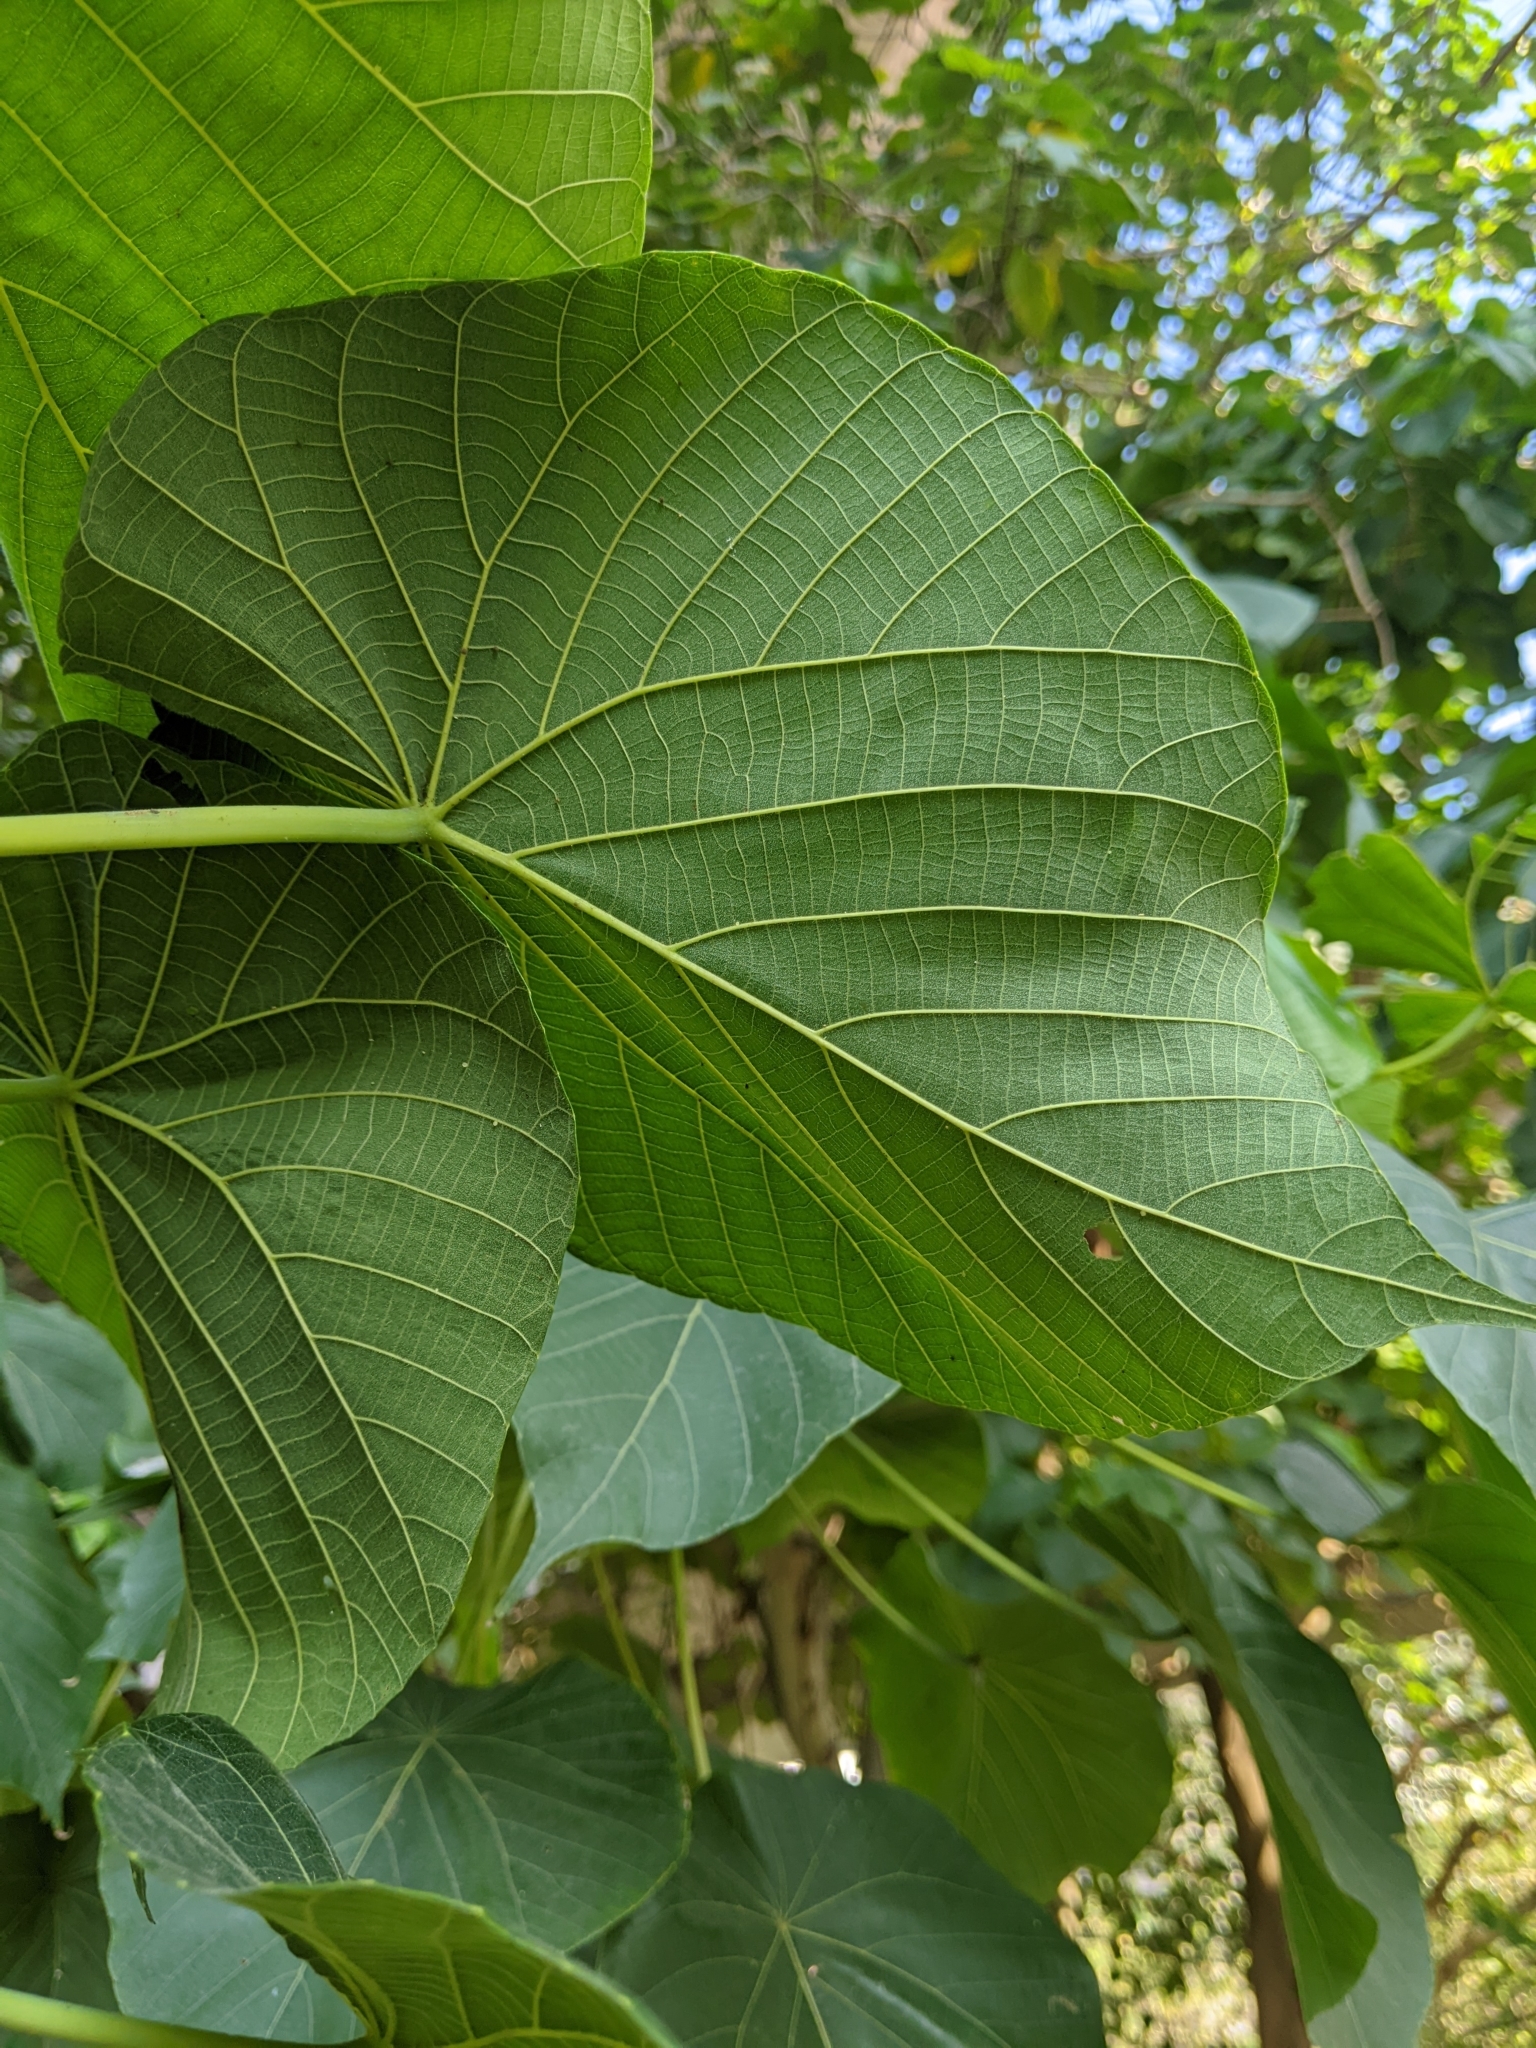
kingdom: Plantae
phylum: Tracheophyta
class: Magnoliopsida
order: Malpighiales
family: Euphorbiaceae
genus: Macaranga
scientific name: Macaranga tanarius
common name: Parasol leaf tree
